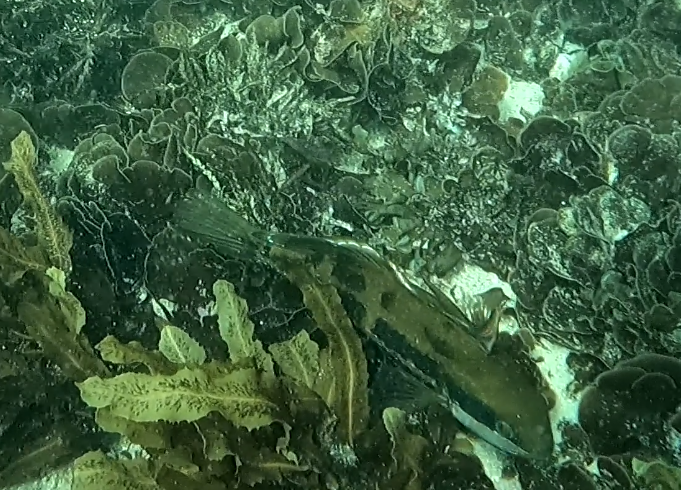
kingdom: Animalia
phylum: Chordata
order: Perciformes
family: Odacidae
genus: Heteroscarus
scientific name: Heteroscarus acroptilus
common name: Marine rainbowfish
